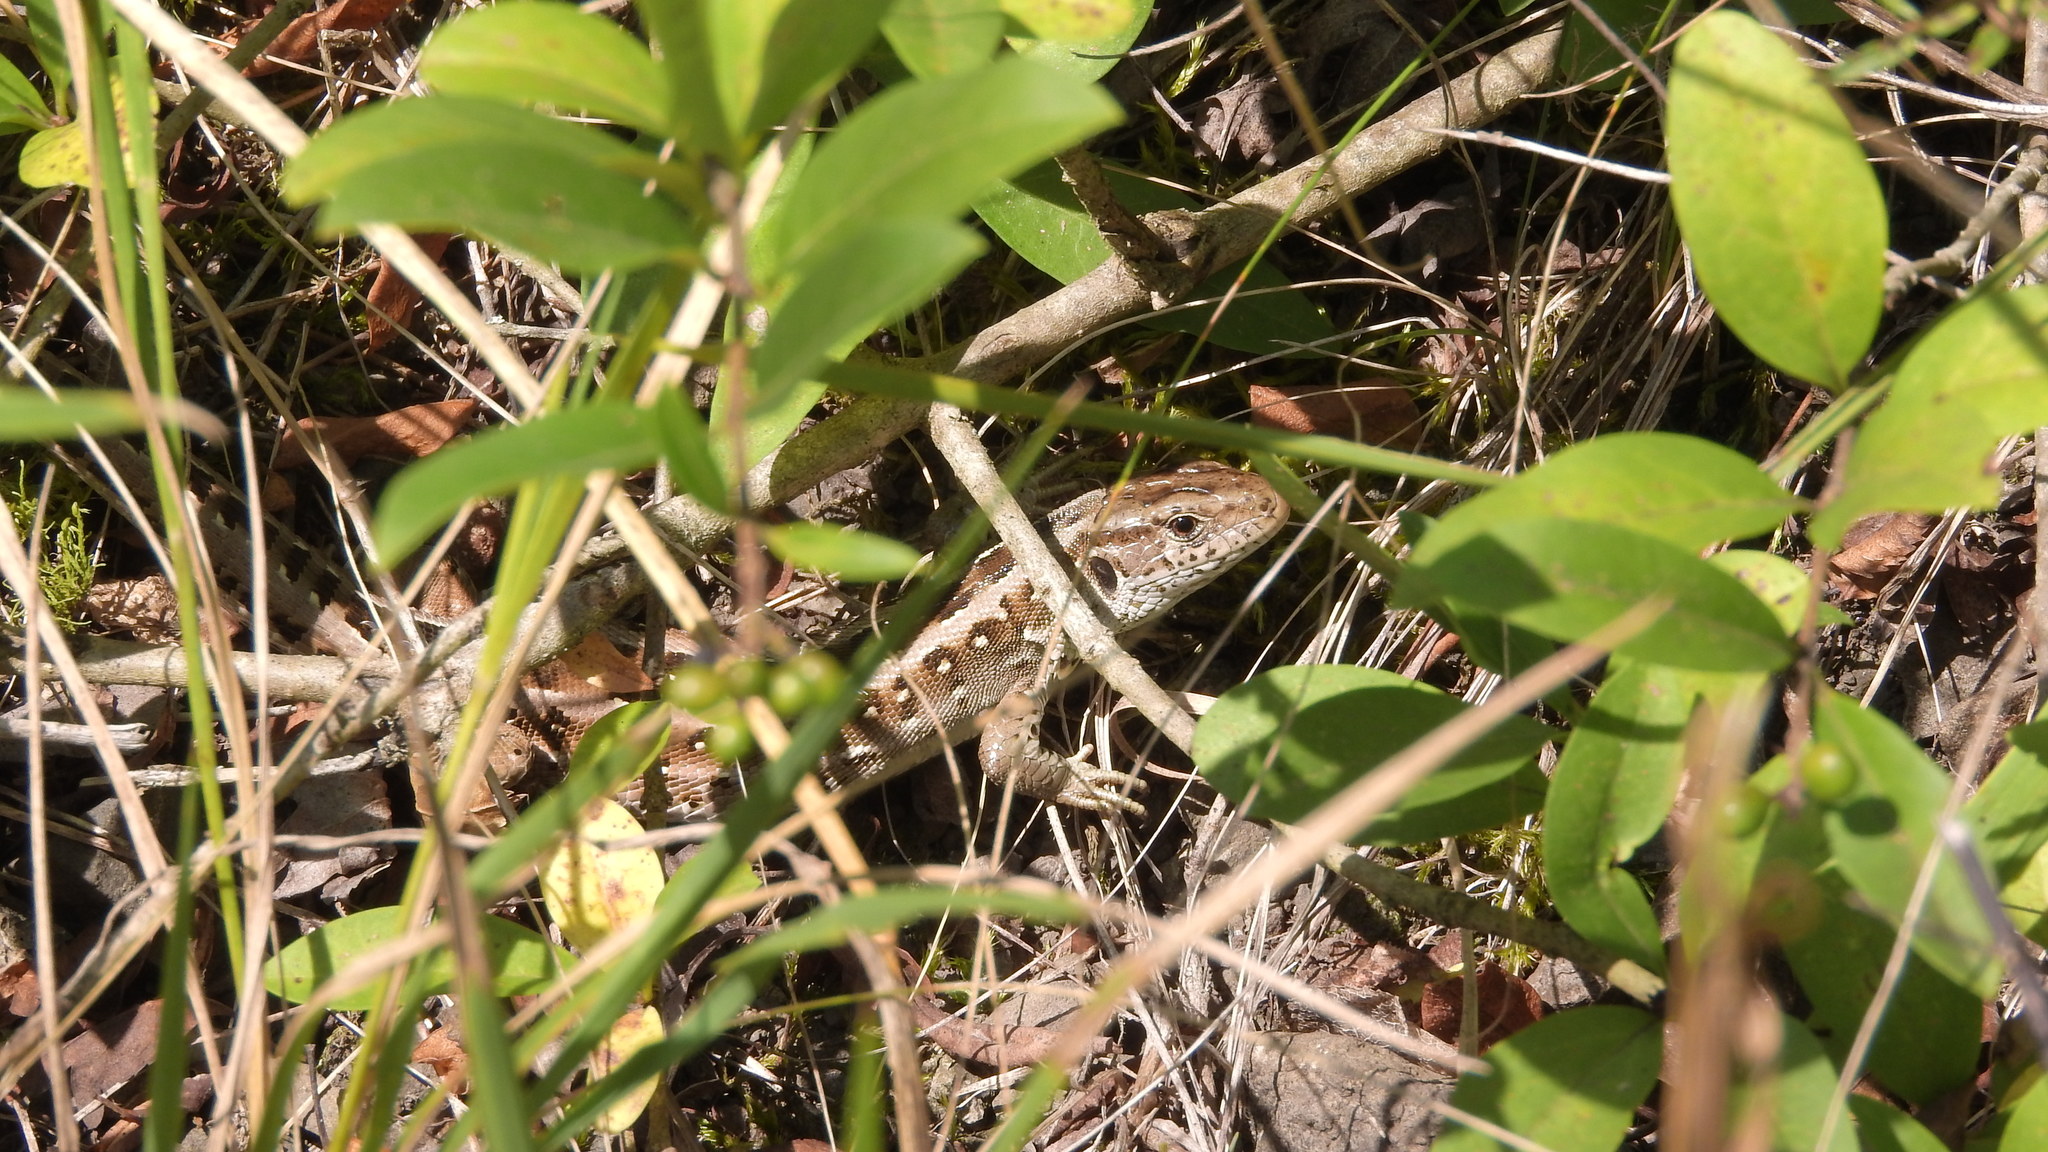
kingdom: Animalia
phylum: Chordata
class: Squamata
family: Lacertidae
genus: Lacerta
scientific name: Lacerta agilis
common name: Sand lizard
